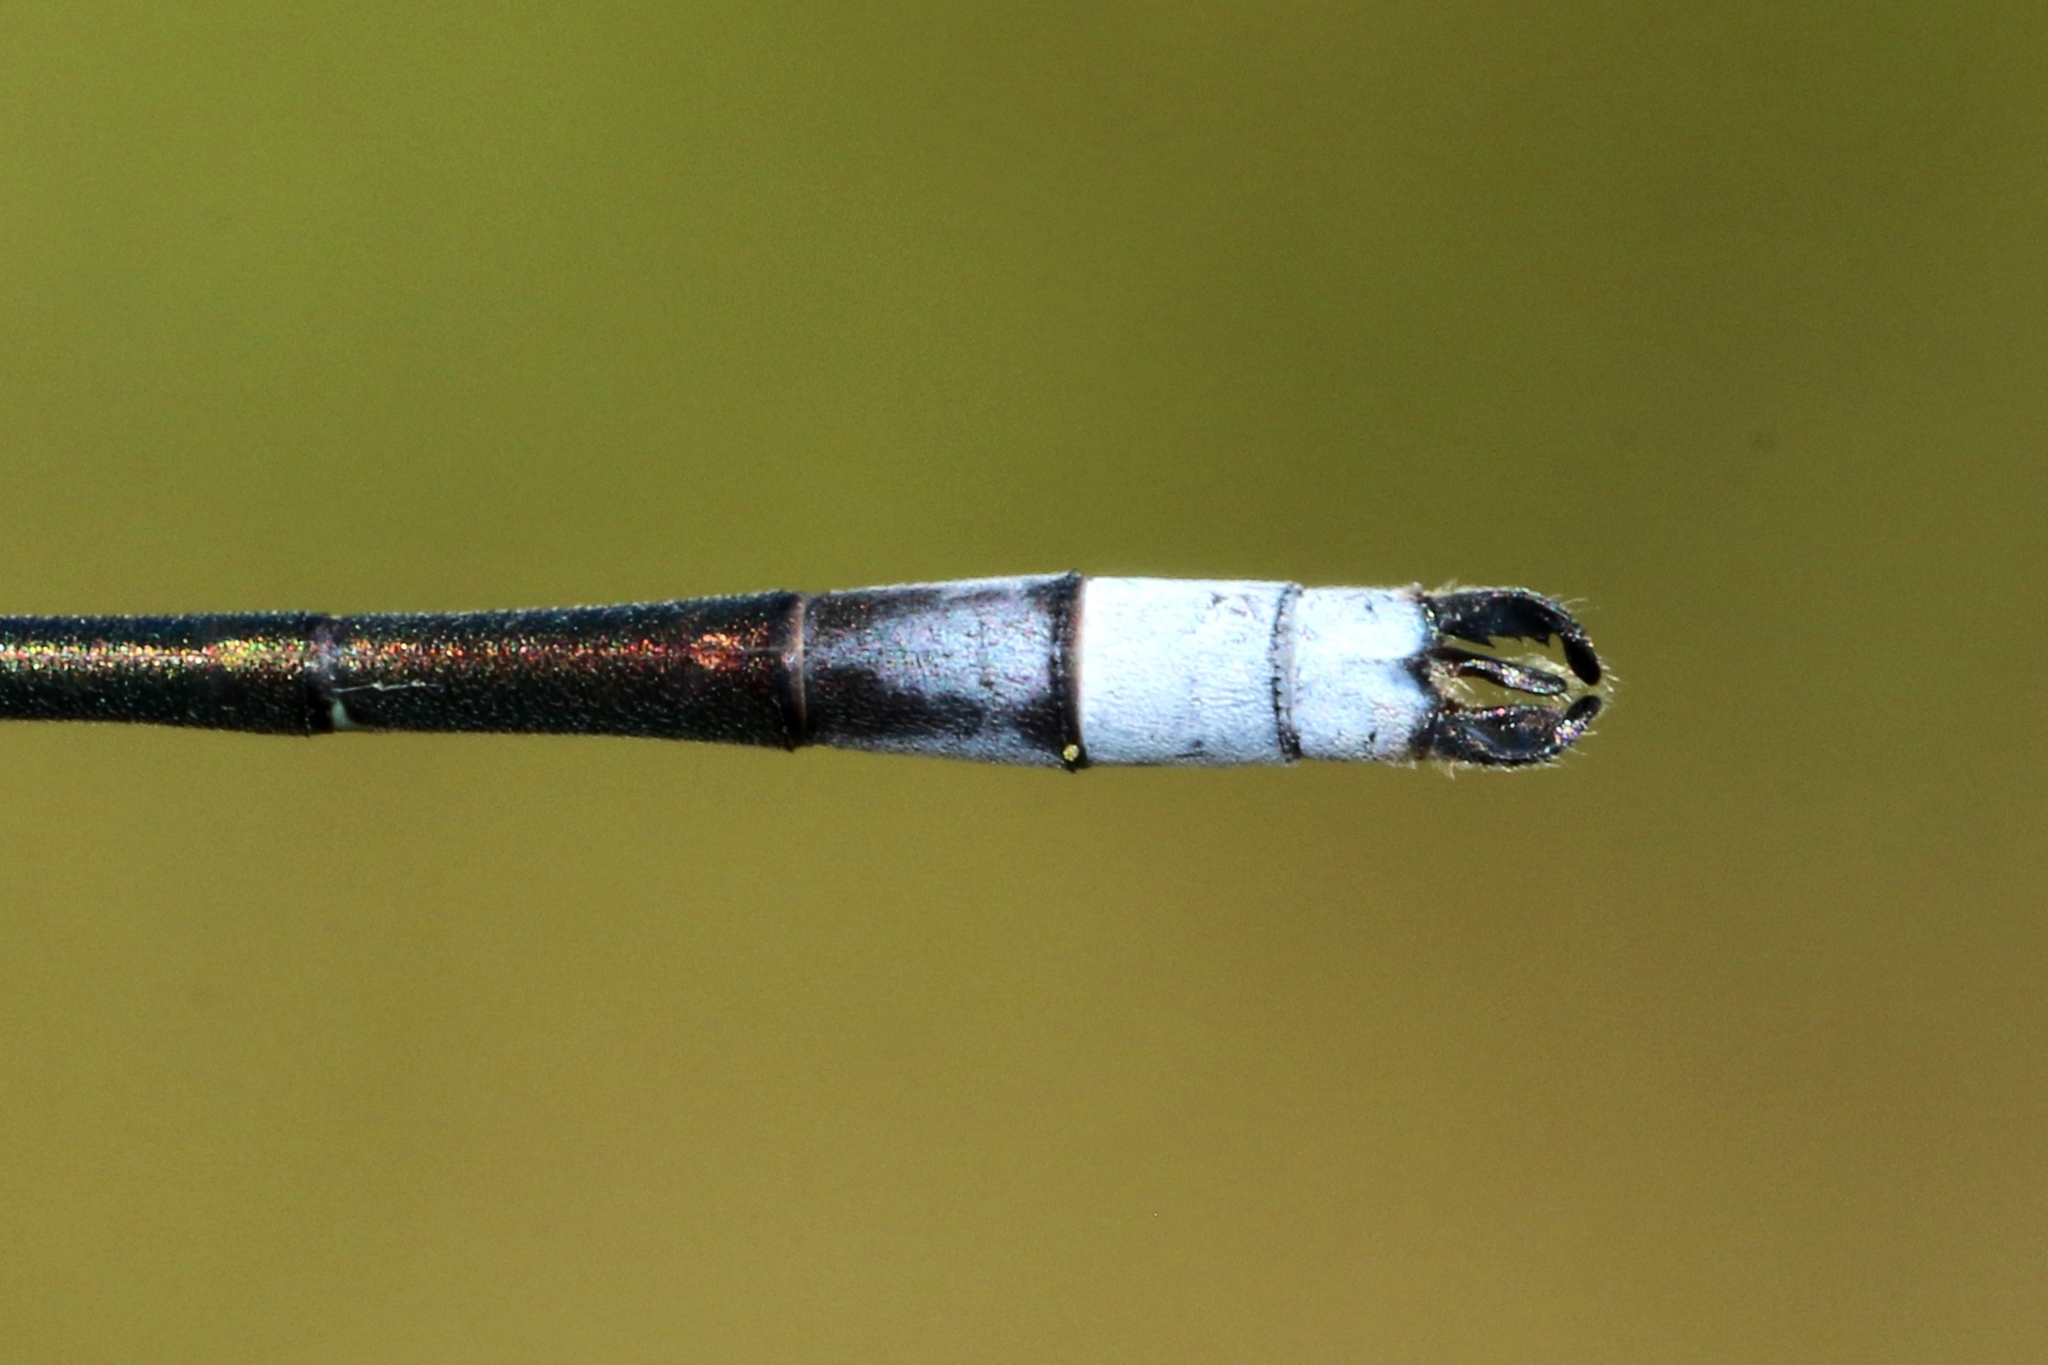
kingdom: Animalia
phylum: Arthropoda
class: Insecta
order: Odonata
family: Lestidae
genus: Lestes
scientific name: Lestes disjunctus
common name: Northern spreadwing
